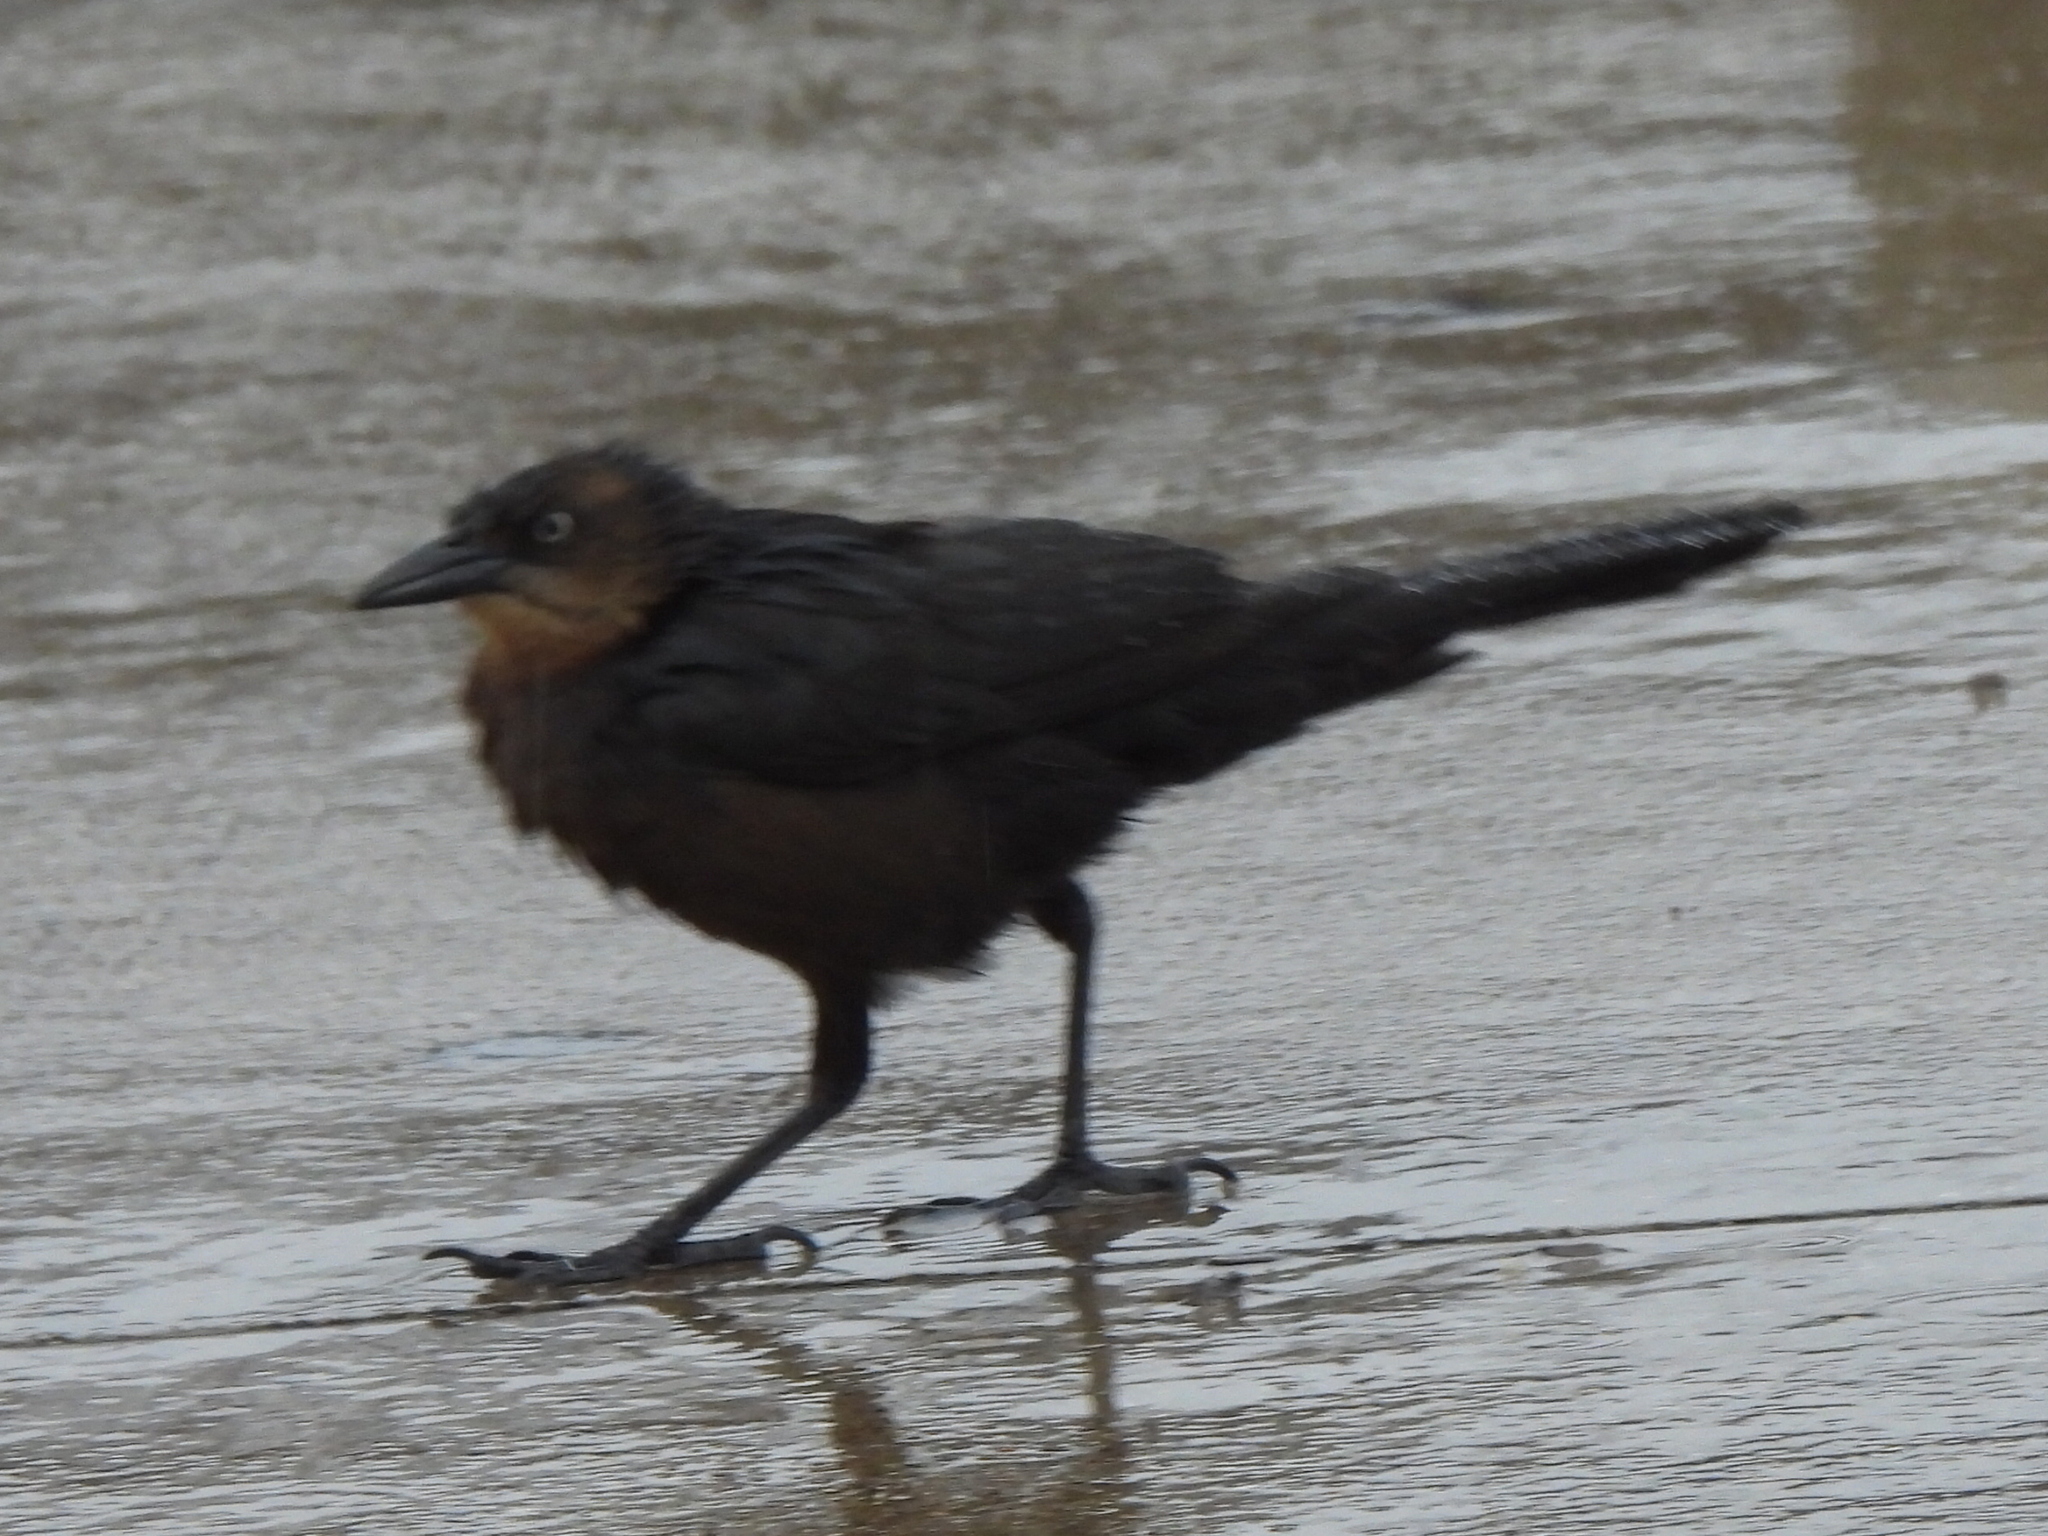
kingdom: Animalia
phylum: Chordata
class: Aves
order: Passeriformes
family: Icteridae
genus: Quiscalus
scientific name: Quiscalus mexicanus
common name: Great-tailed grackle
